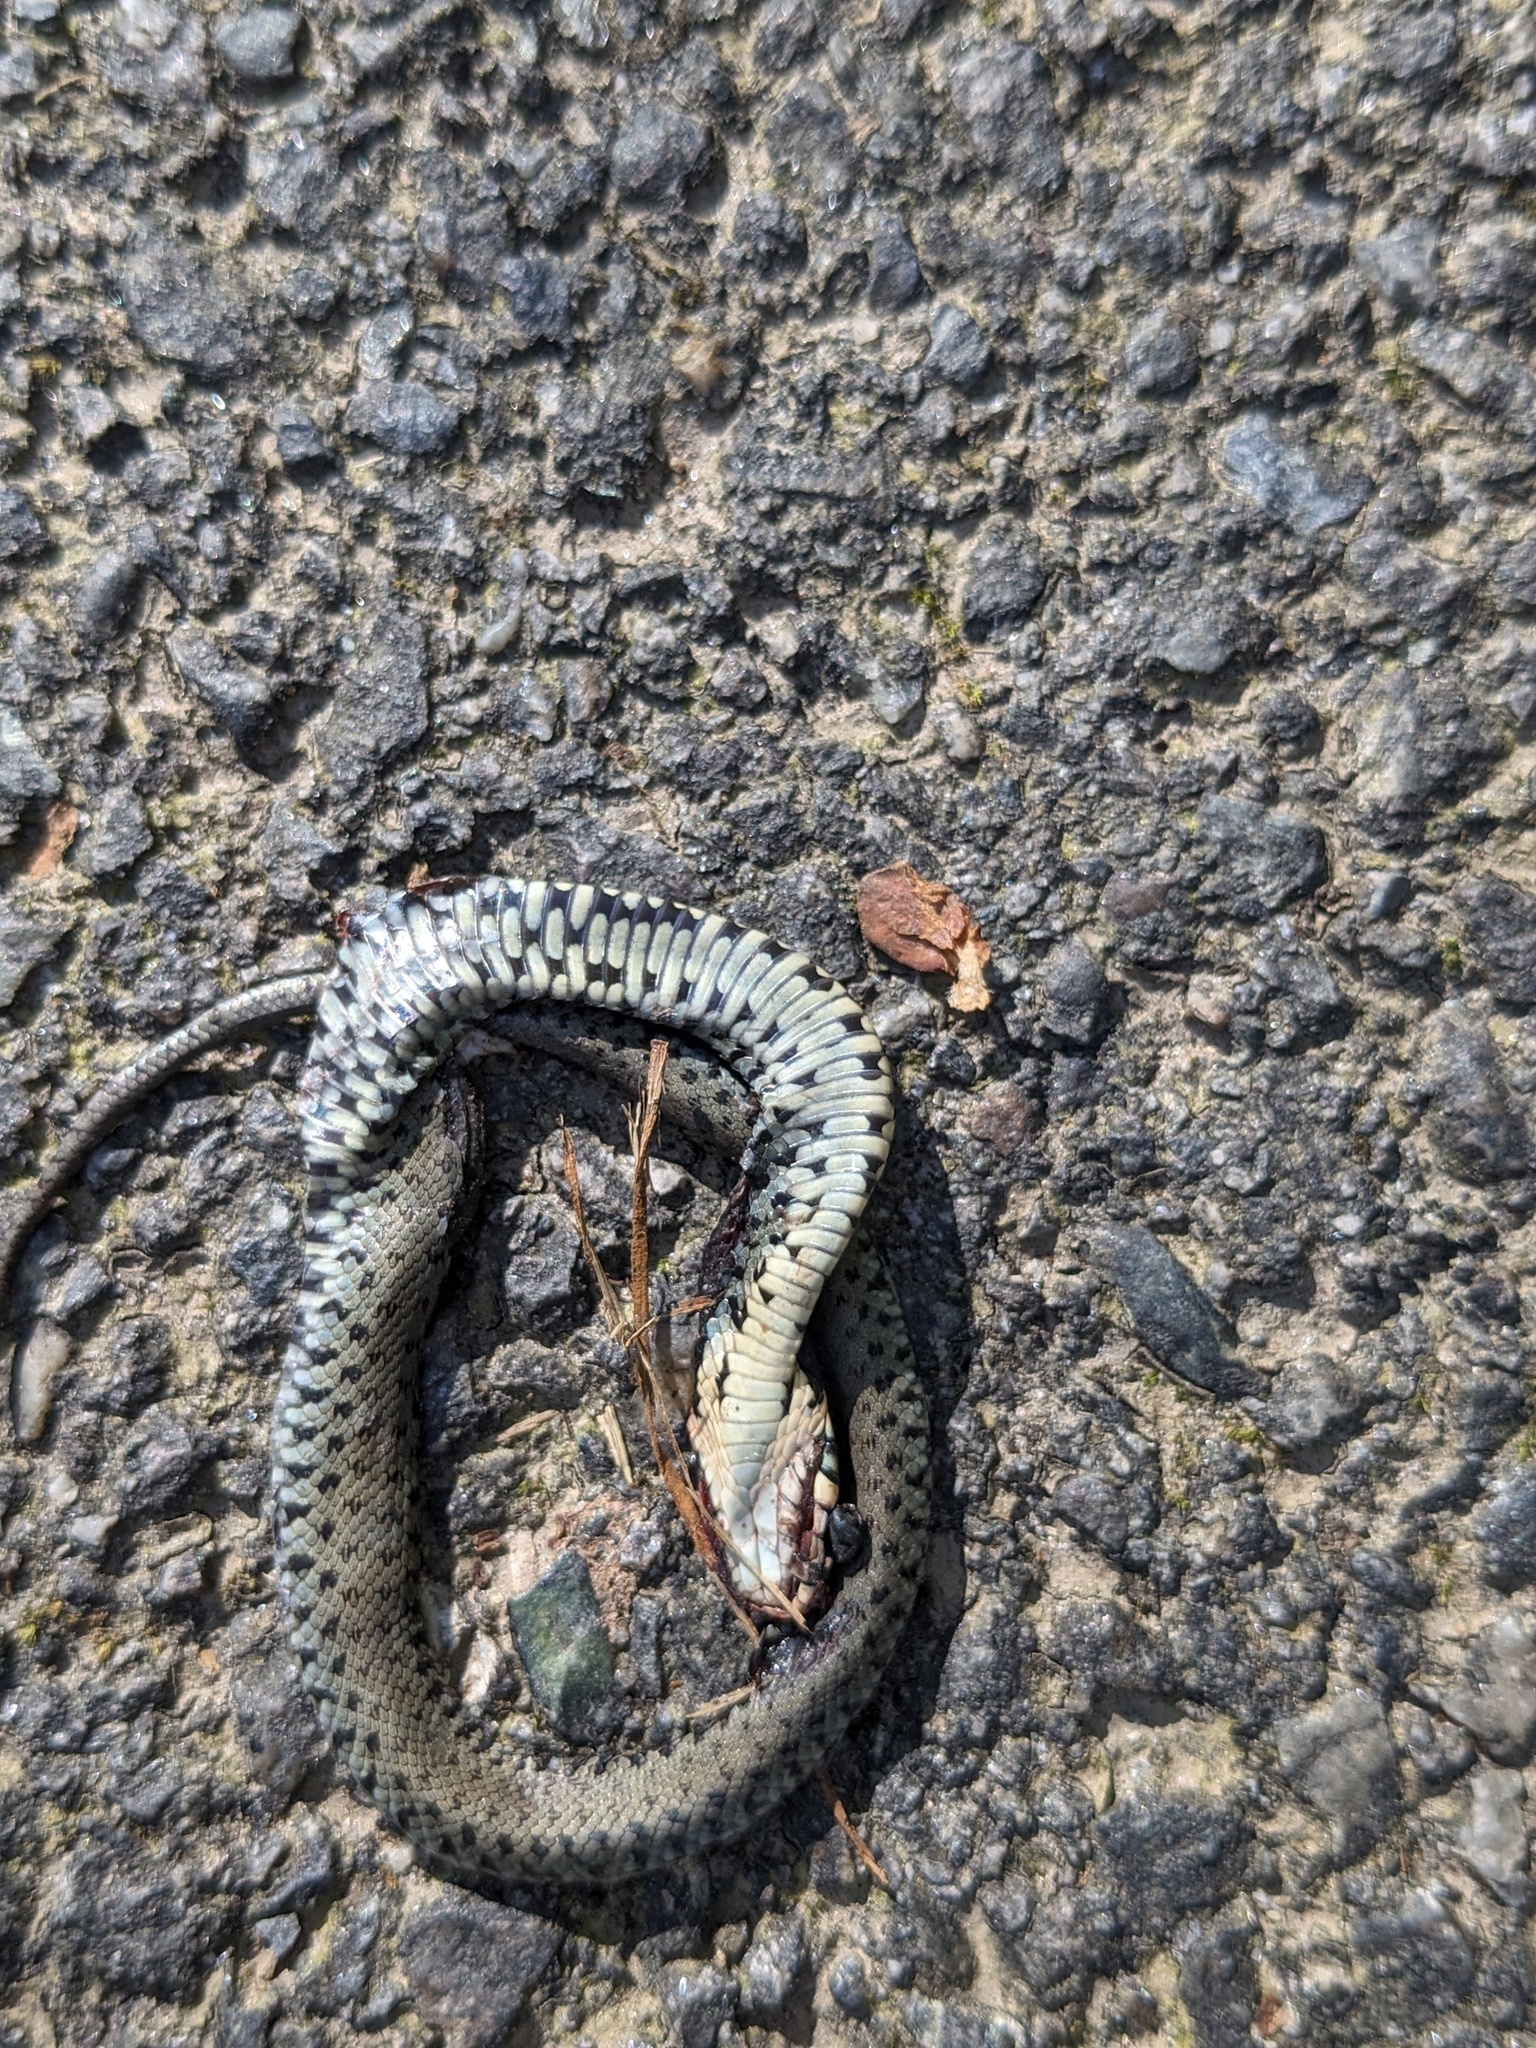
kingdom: Animalia
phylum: Chordata
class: Squamata
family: Colubridae
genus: Natrix
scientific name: Natrix helvetica
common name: Banded grass snake
